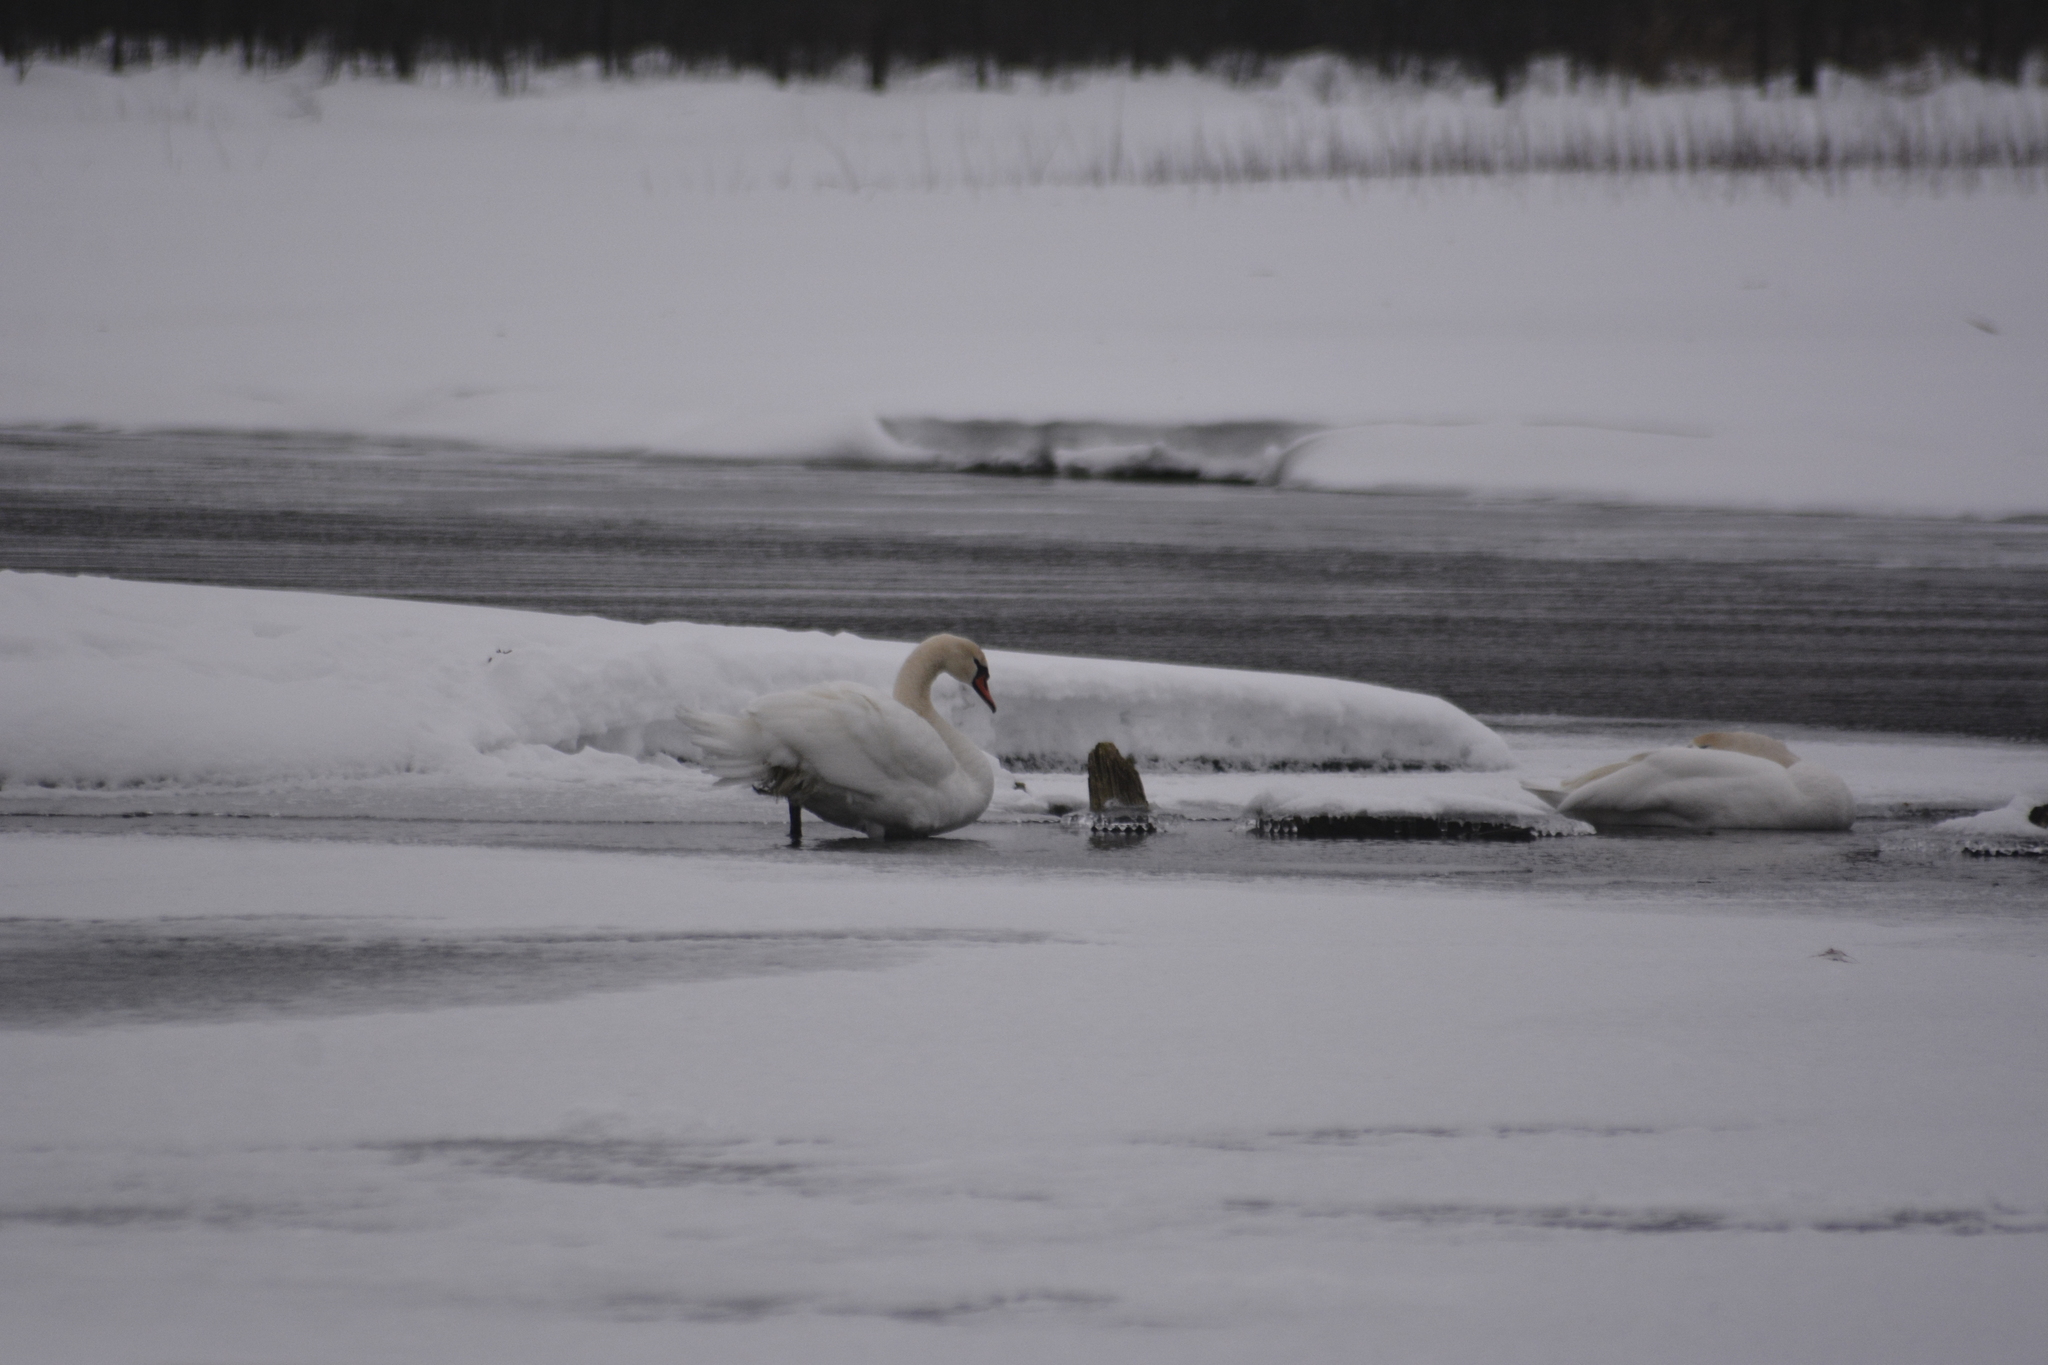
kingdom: Animalia
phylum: Chordata
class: Aves
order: Anseriformes
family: Anatidae
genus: Cygnus
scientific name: Cygnus olor
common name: Mute swan
